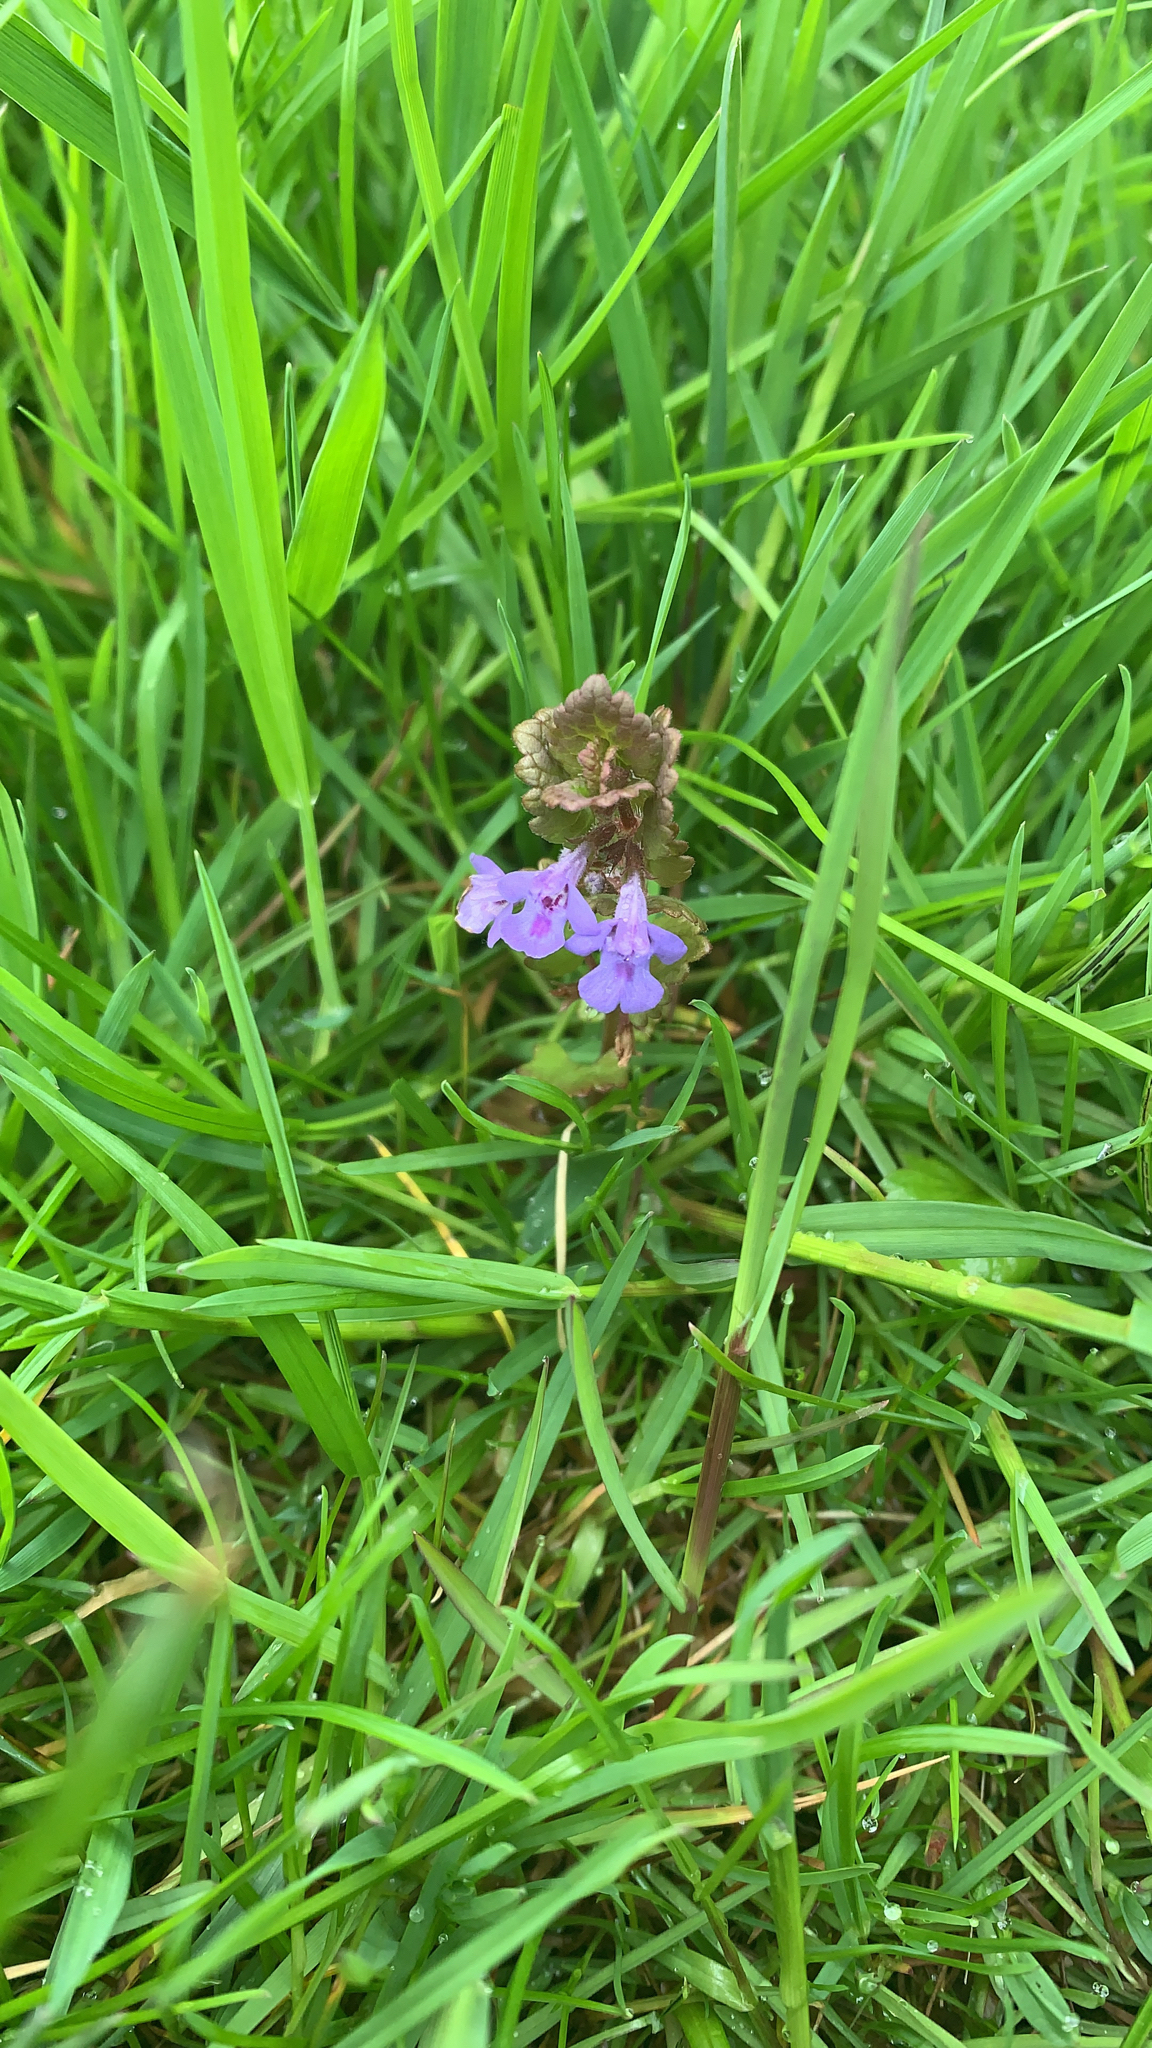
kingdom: Plantae
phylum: Tracheophyta
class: Magnoliopsida
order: Lamiales
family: Lamiaceae
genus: Glechoma
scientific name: Glechoma hederacea
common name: Ground ivy
